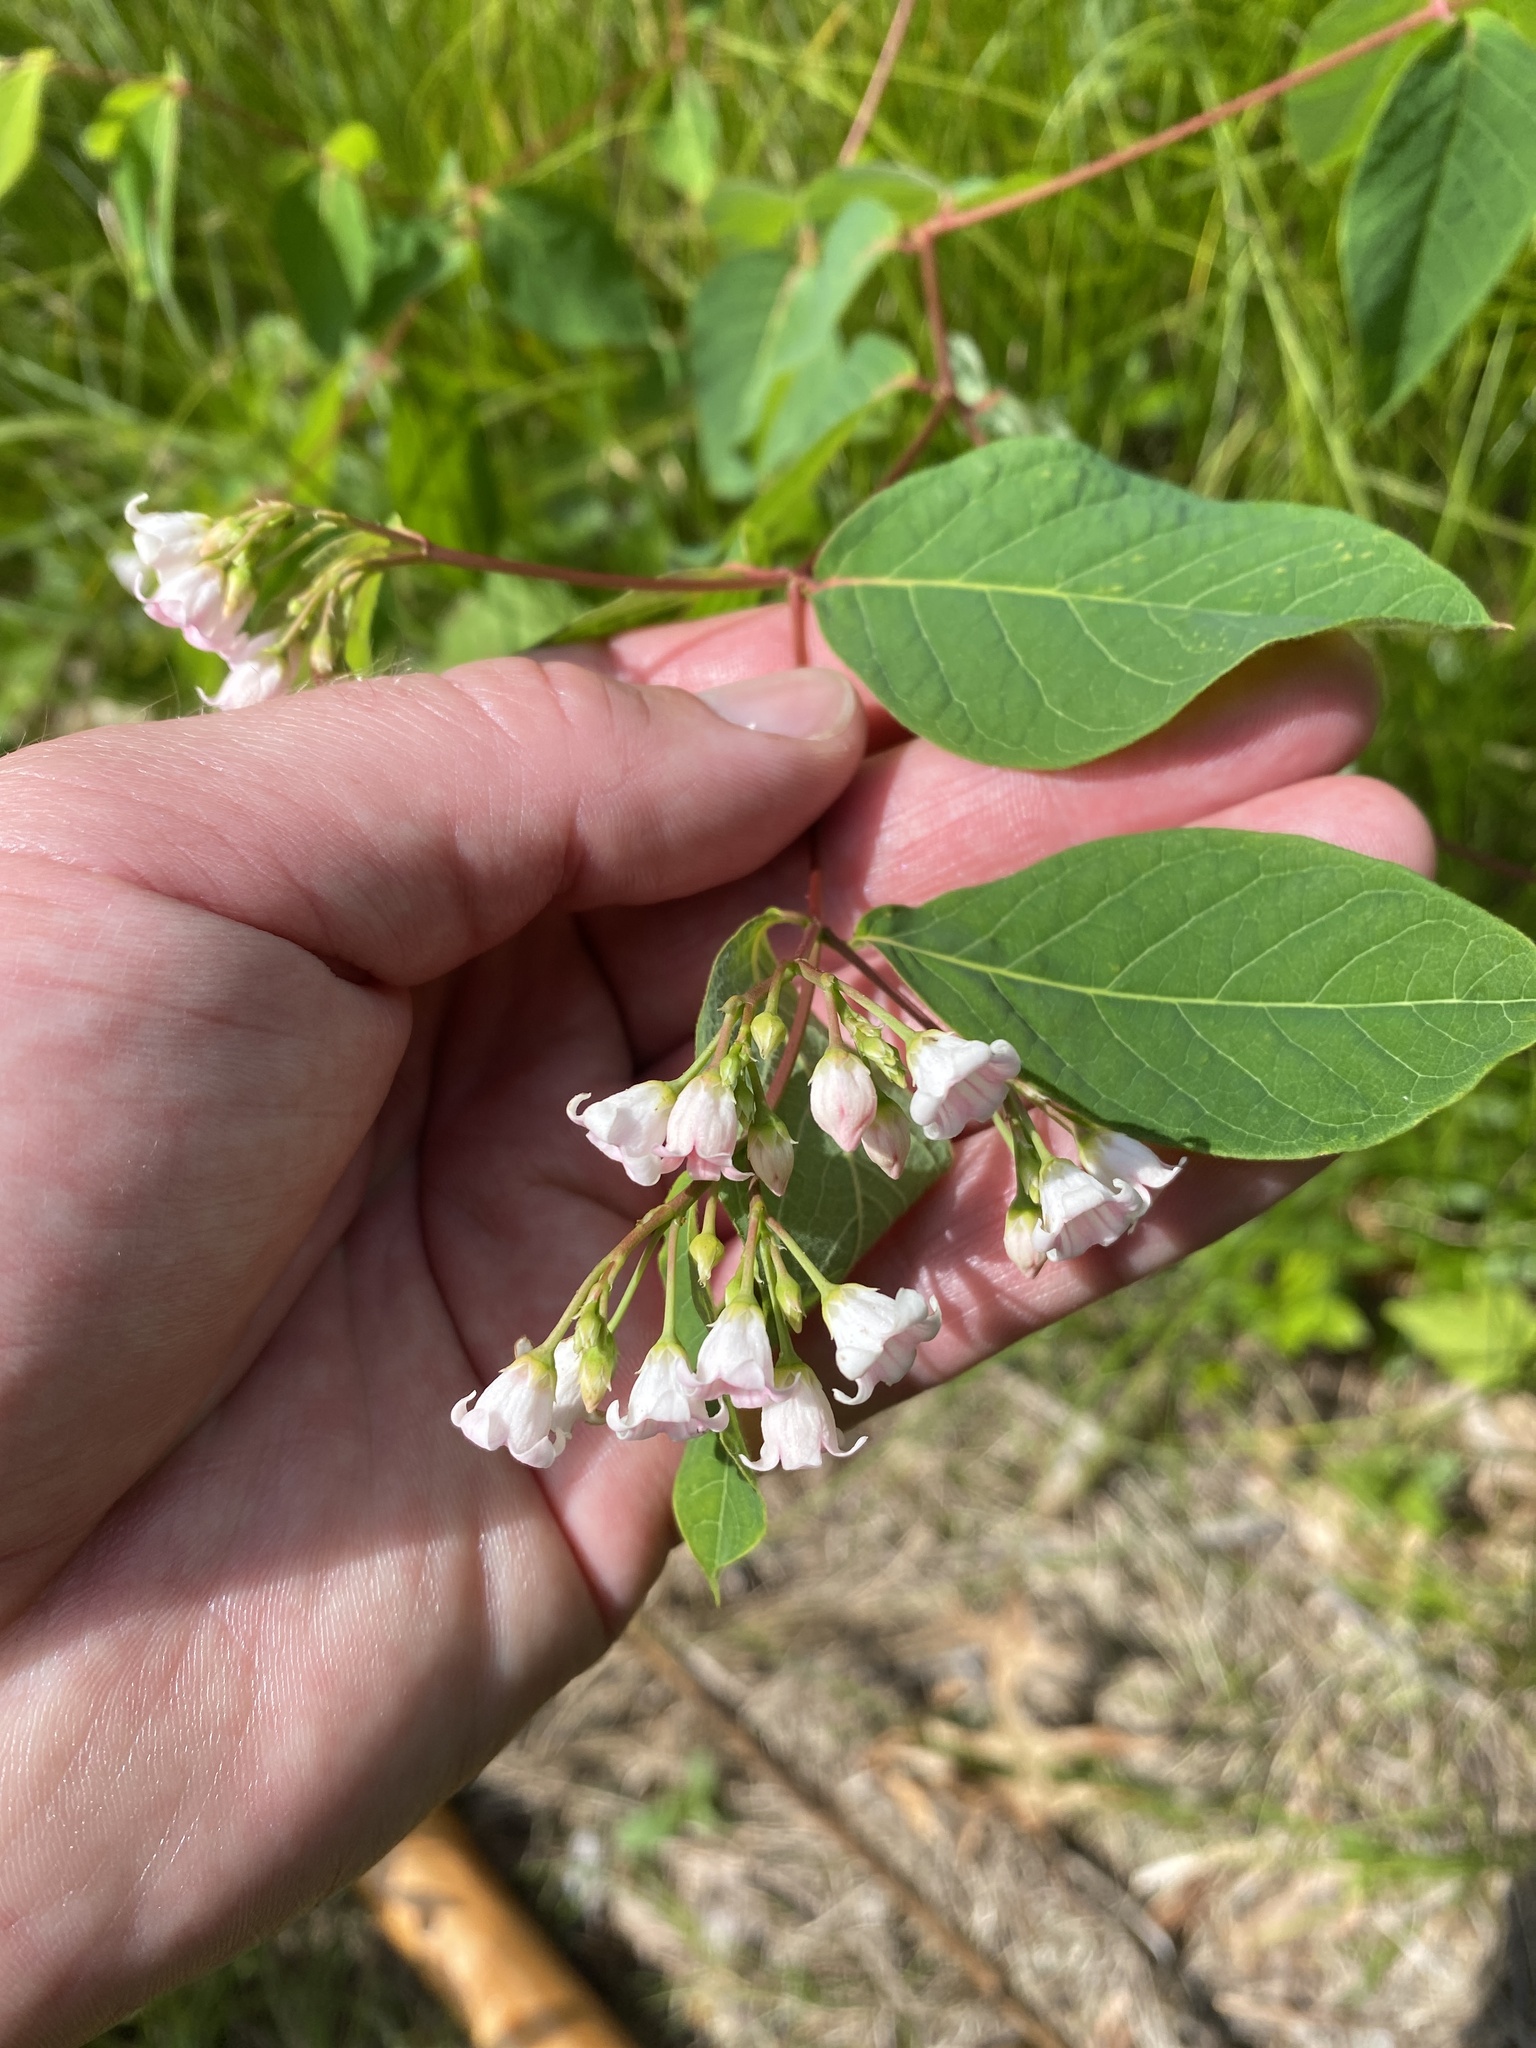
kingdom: Plantae
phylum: Tracheophyta
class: Magnoliopsida
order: Gentianales
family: Apocynaceae
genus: Apocynum
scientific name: Apocynum androsaemifolium
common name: Spreading dogbane
